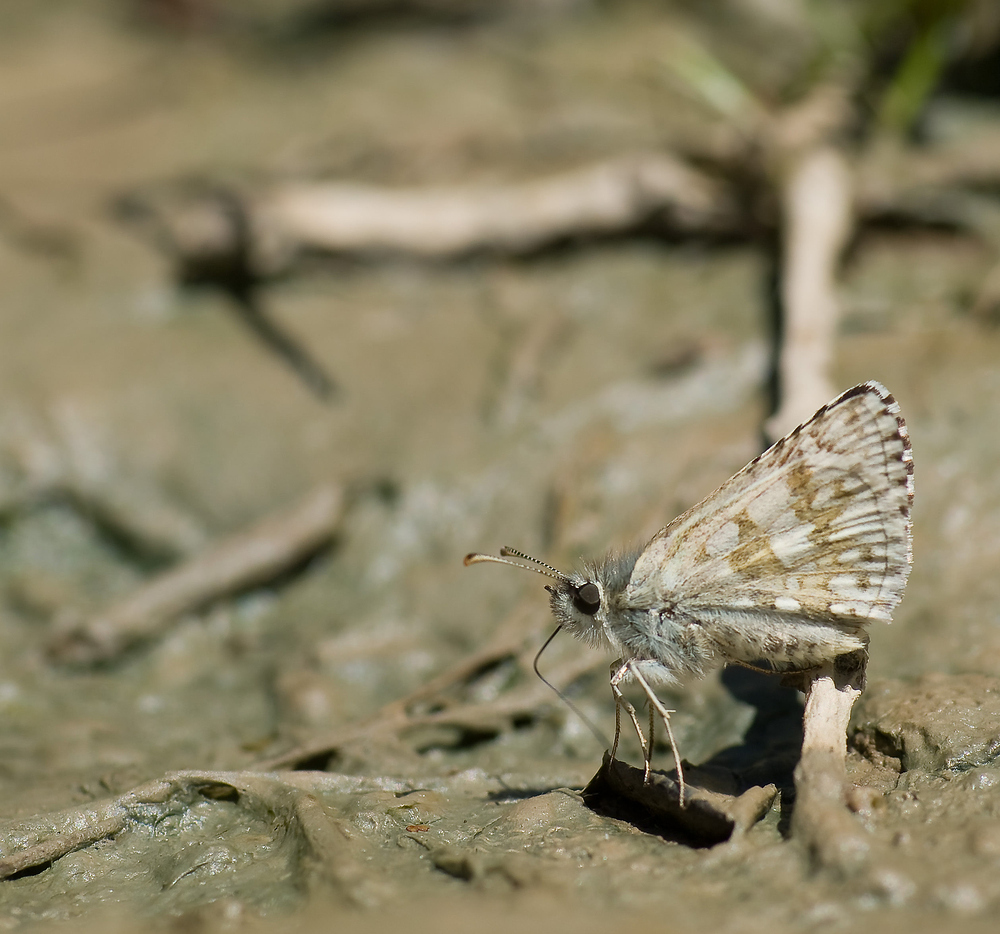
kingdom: Animalia
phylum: Arthropoda
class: Insecta
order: Lepidoptera
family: Hesperiidae
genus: Pyrgus
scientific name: Pyrgus fritillarius
